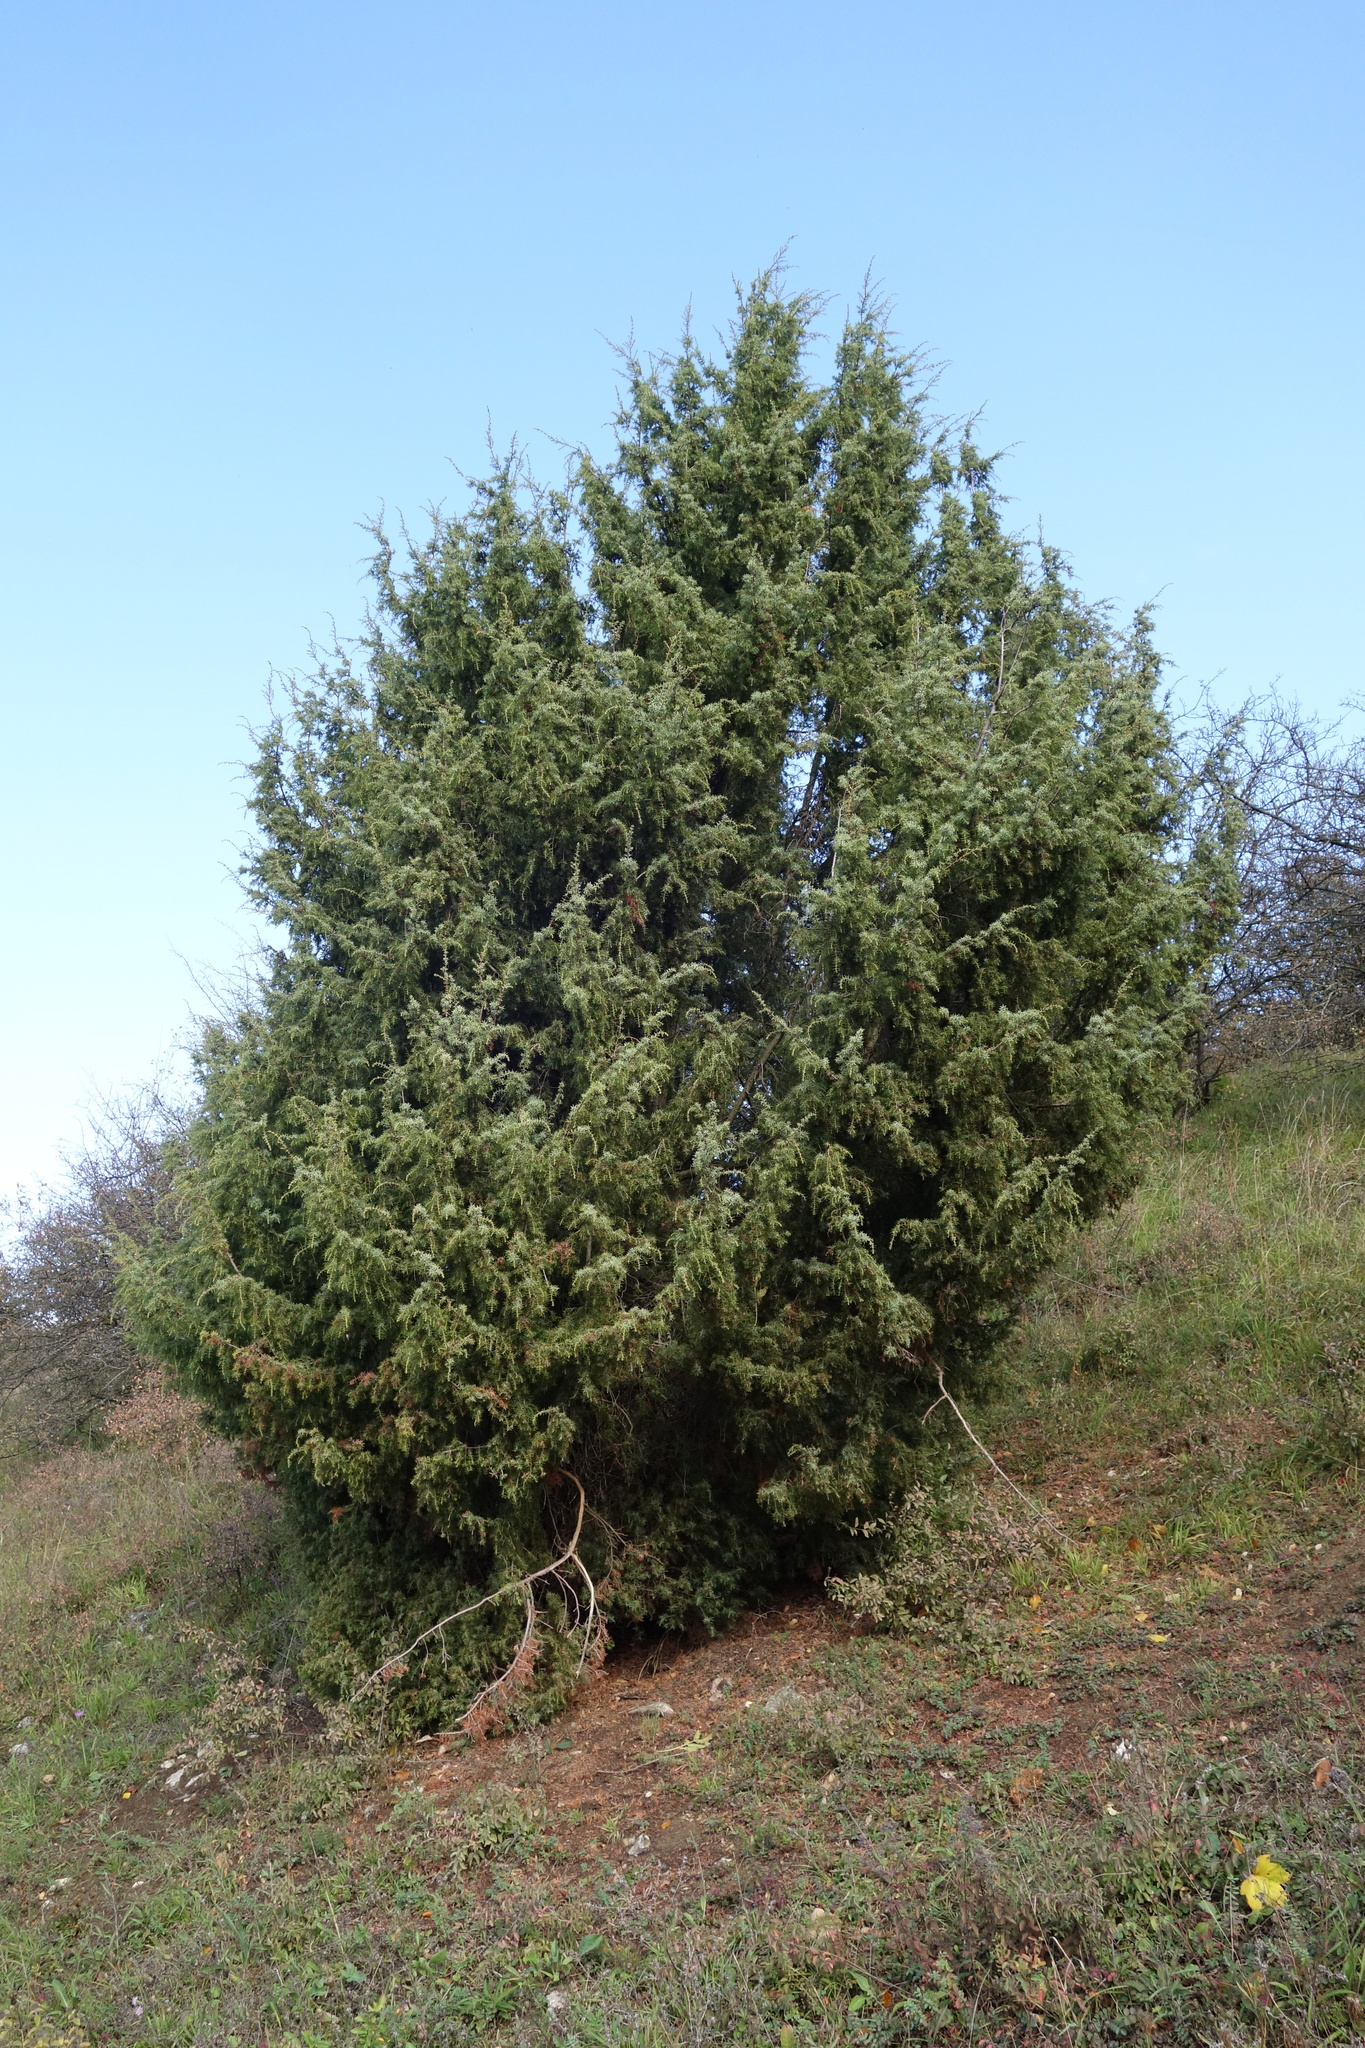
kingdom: Plantae
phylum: Tracheophyta
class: Pinopsida
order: Pinales
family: Cupressaceae
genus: Juniperus
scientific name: Juniperus communis
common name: Common juniper
